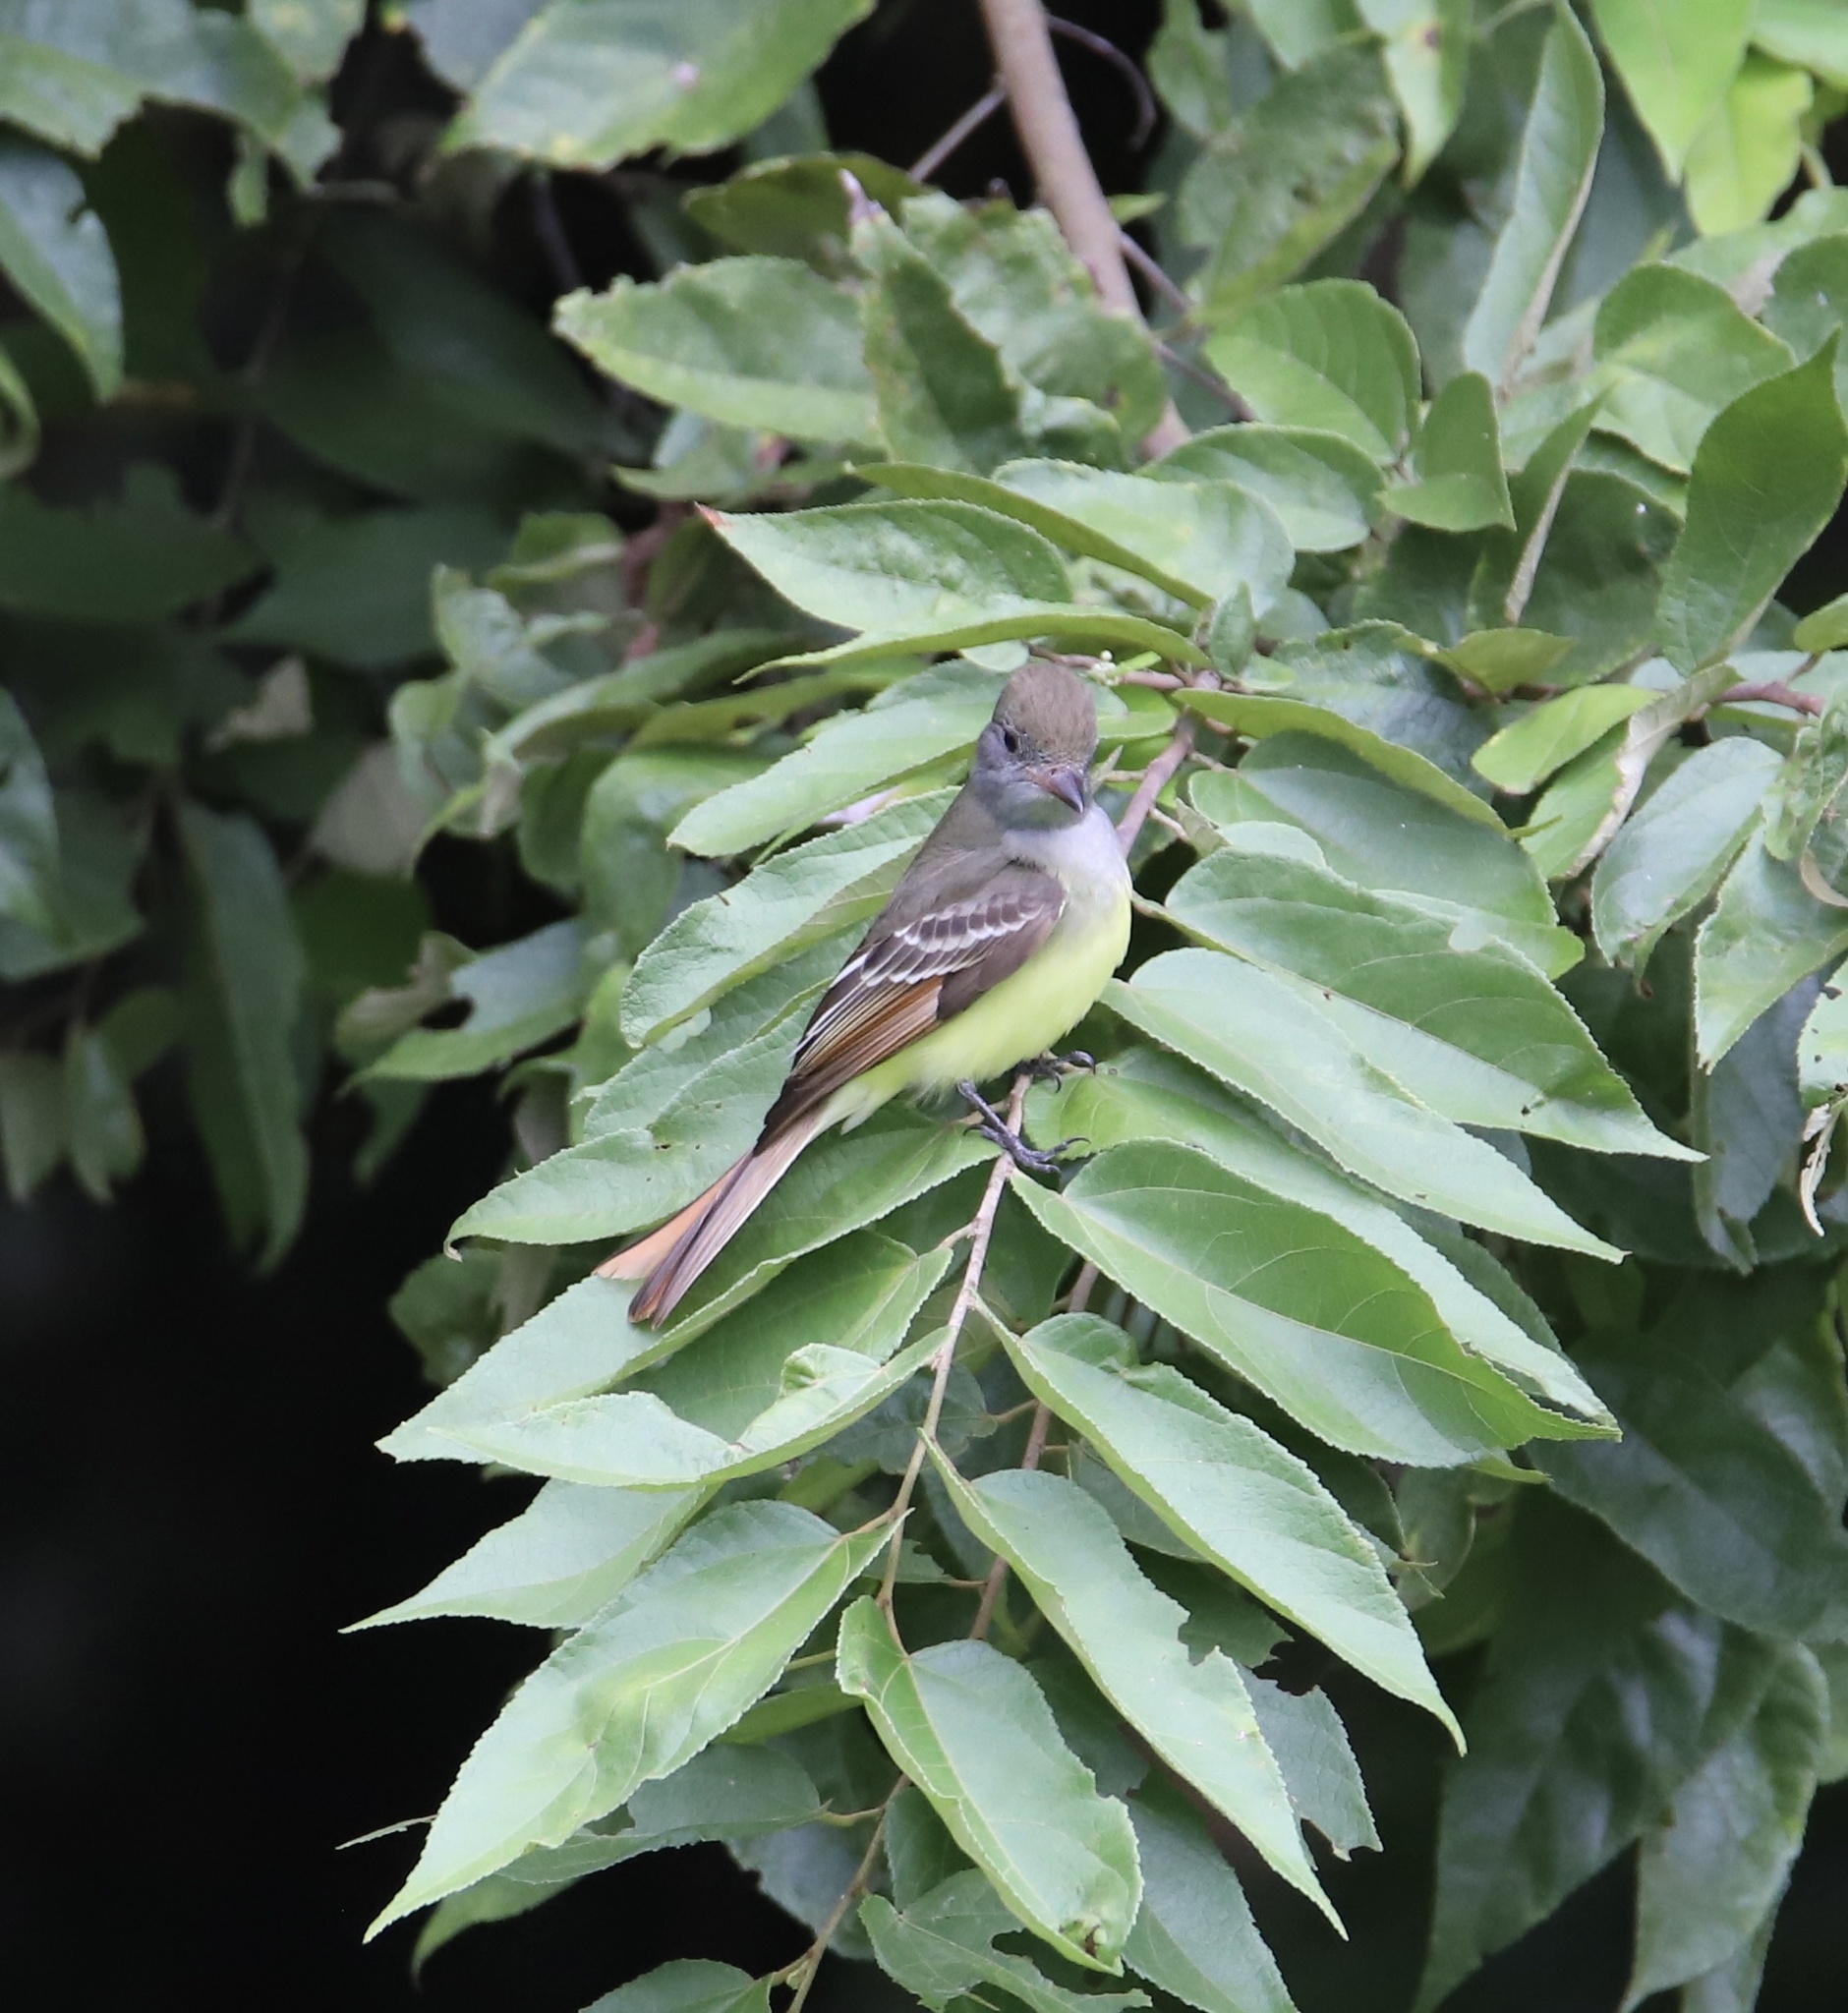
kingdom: Animalia
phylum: Chordata
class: Aves
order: Passeriformes
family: Tyrannidae
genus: Myiarchus
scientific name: Myiarchus crinitus
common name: Great crested flycatcher
